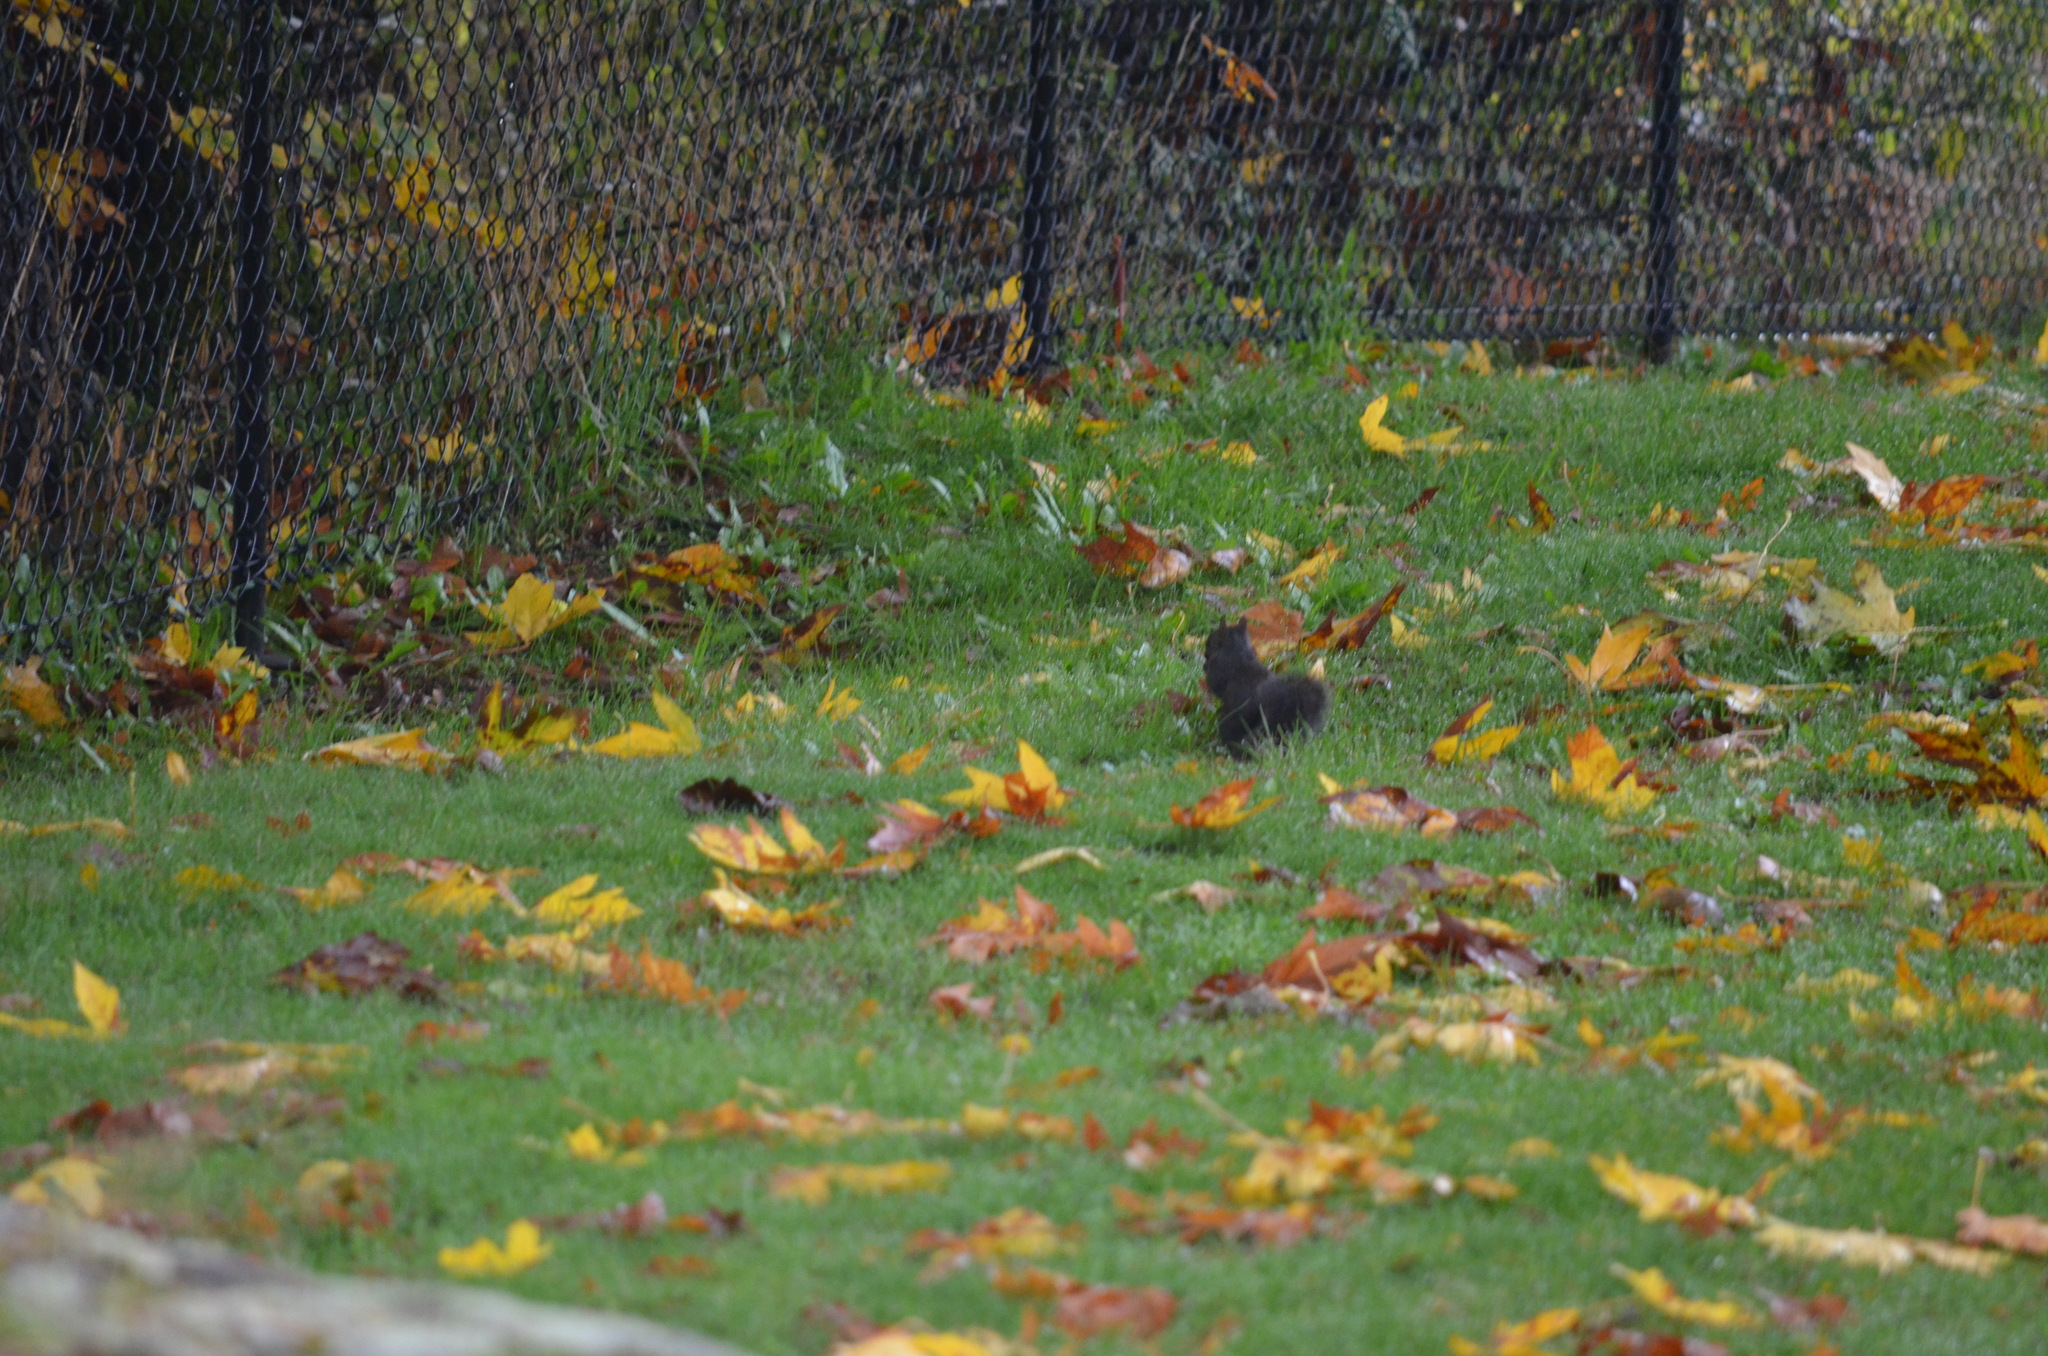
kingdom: Animalia
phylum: Chordata
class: Mammalia
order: Rodentia
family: Sciuridae
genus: Sciurus
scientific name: Sciurus carolinensis
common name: Eastern gray squirrel
